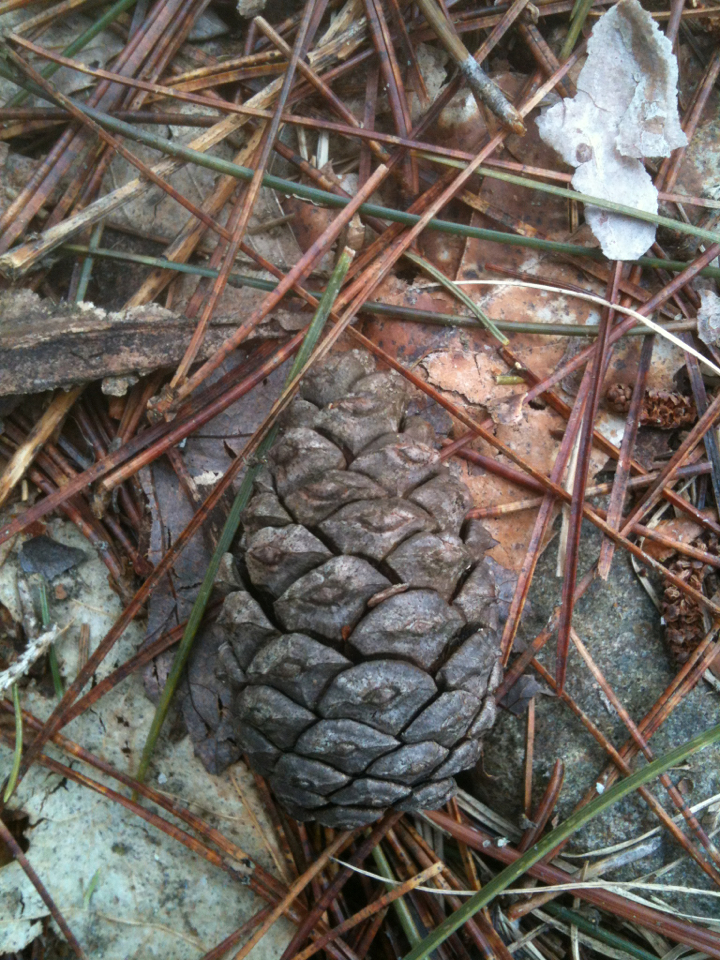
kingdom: Plantae
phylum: Tracheophyta
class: Pinopsida
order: Pinales
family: Pinaceae
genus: Pinus
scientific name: Pinus resinosa
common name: Norway pine
